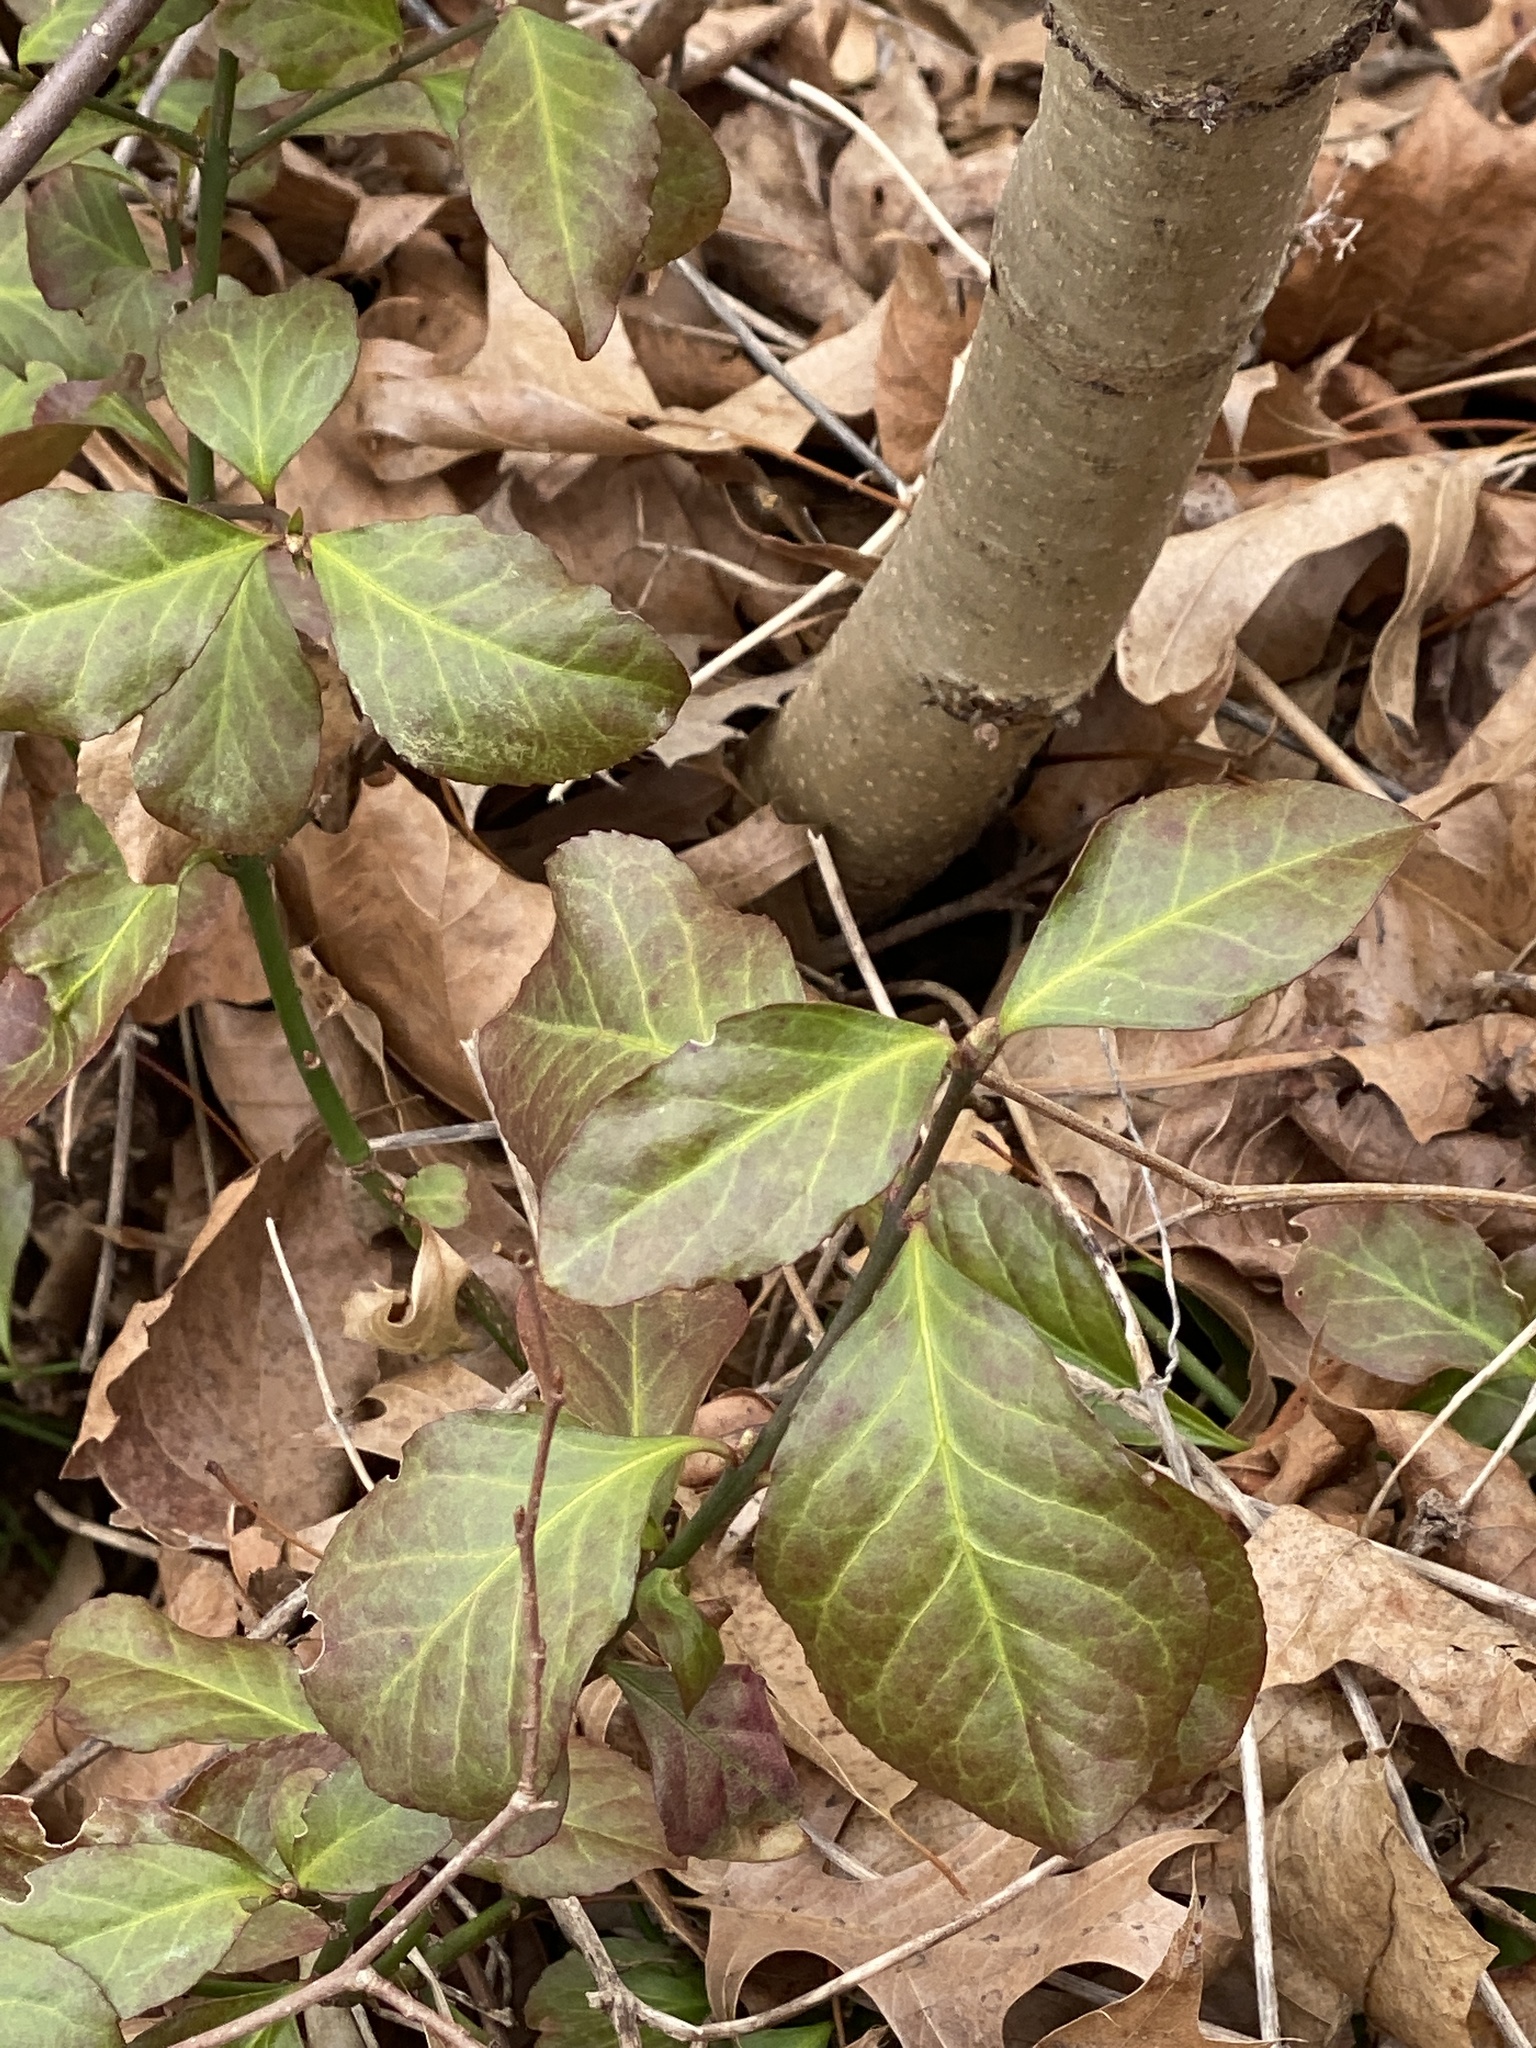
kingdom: Plantae
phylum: Tracheophyta
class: Magnoliopsida
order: Celastrales
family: Celastraceae
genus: Euonymus
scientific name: Euonymus fortunei
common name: Climbing euonymus
